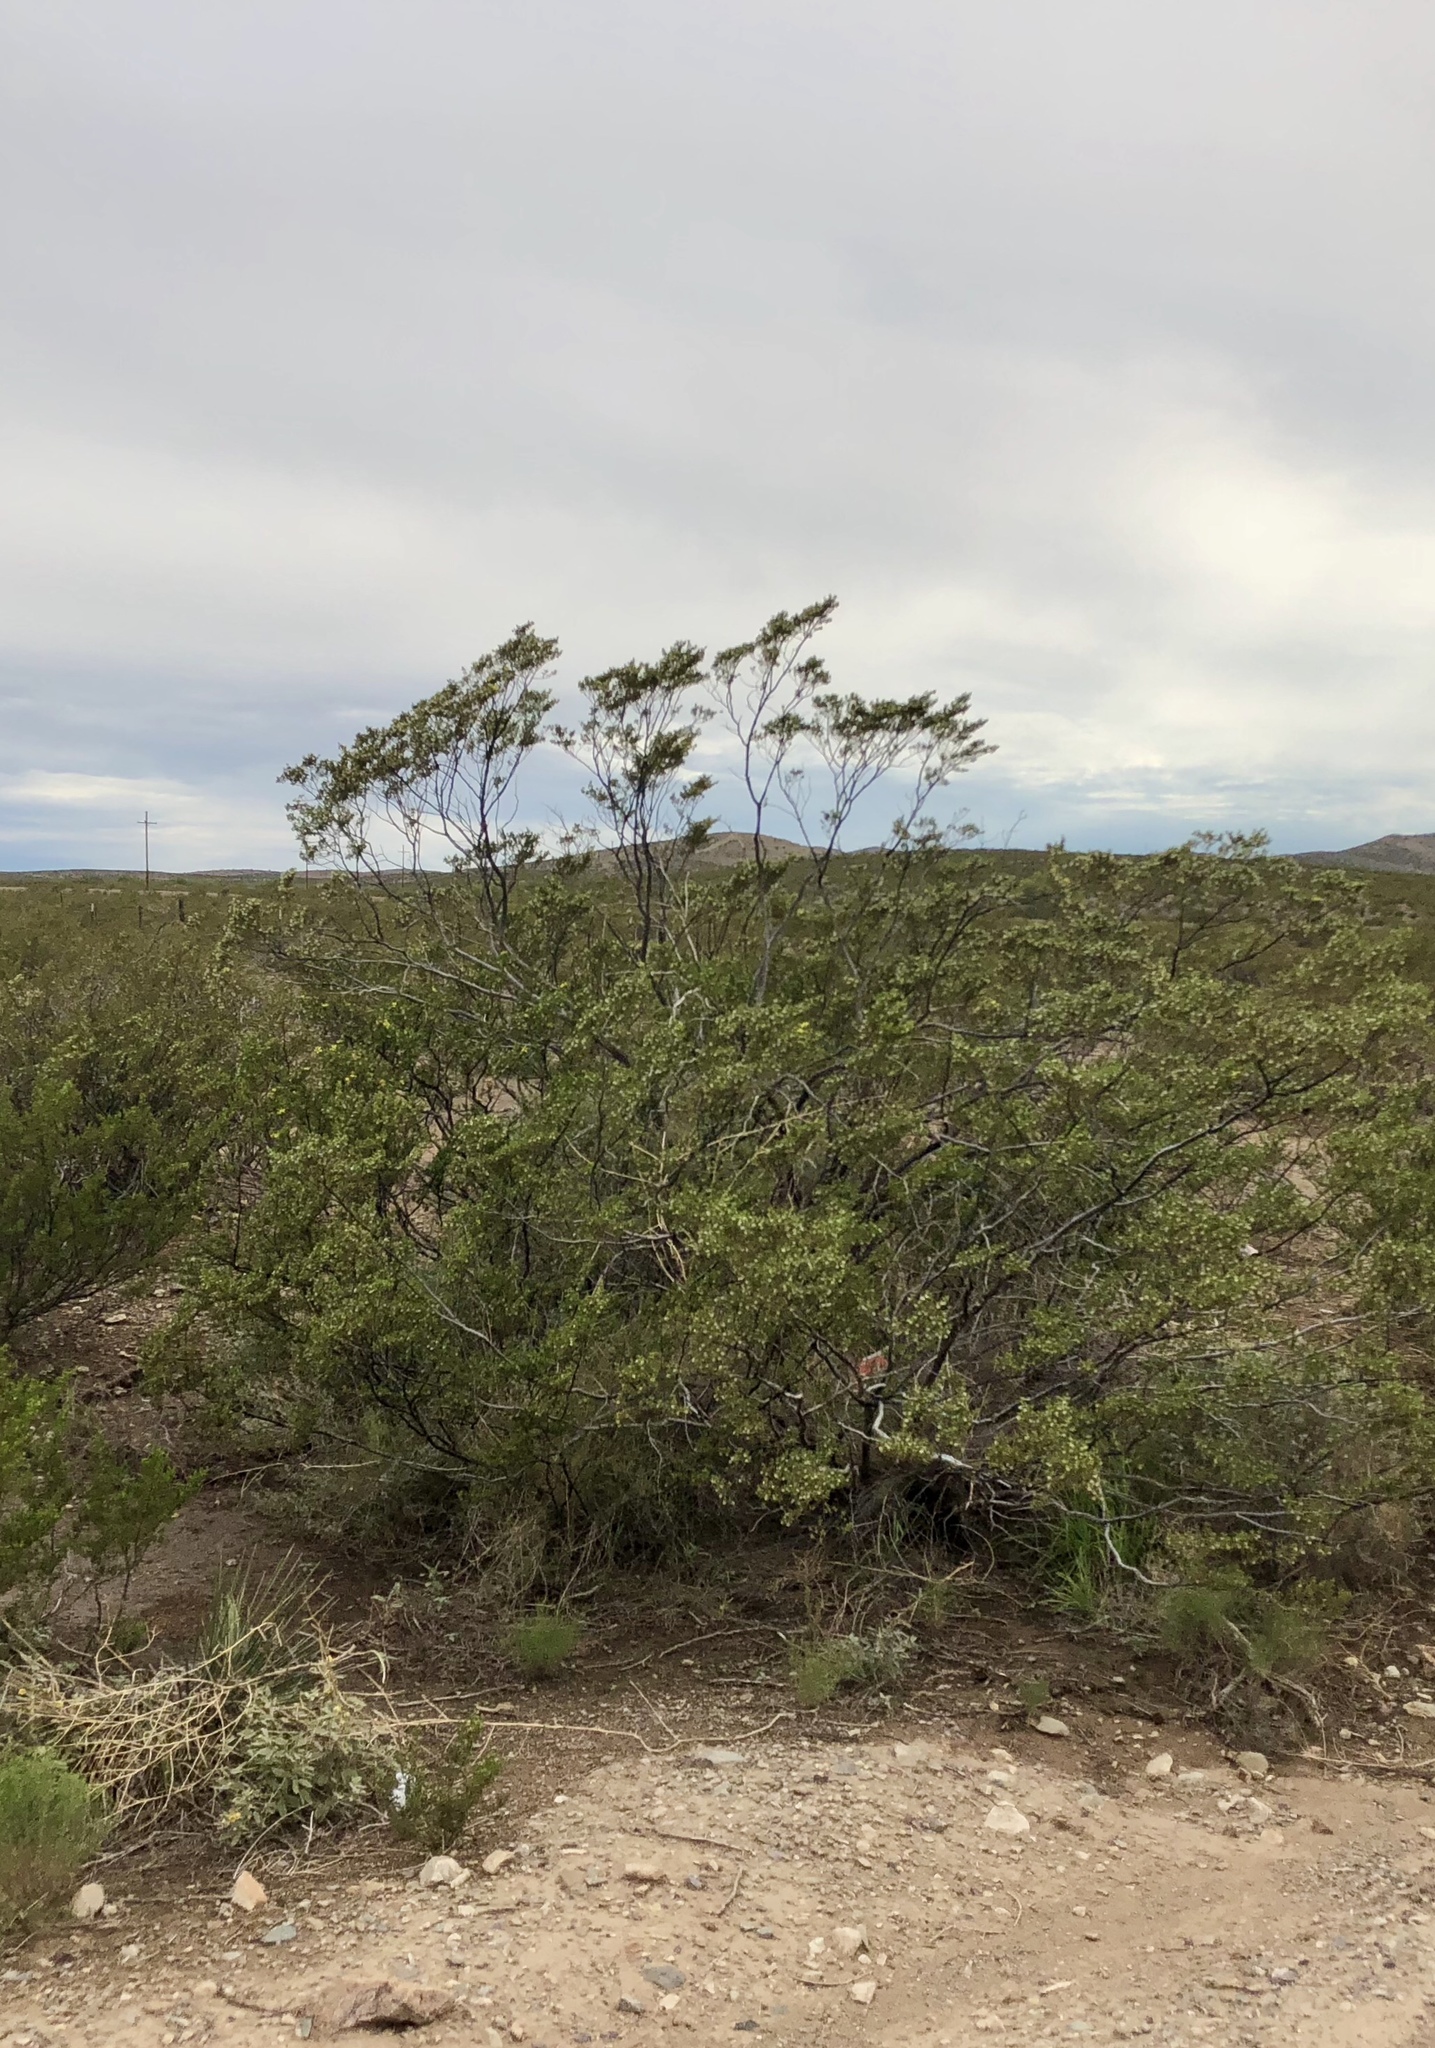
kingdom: Plantae
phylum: Tracheophyta
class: Magnoliopsida
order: Zygophyllales
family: Zygophyllaceae
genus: Larrea
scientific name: Larrea tridentata
